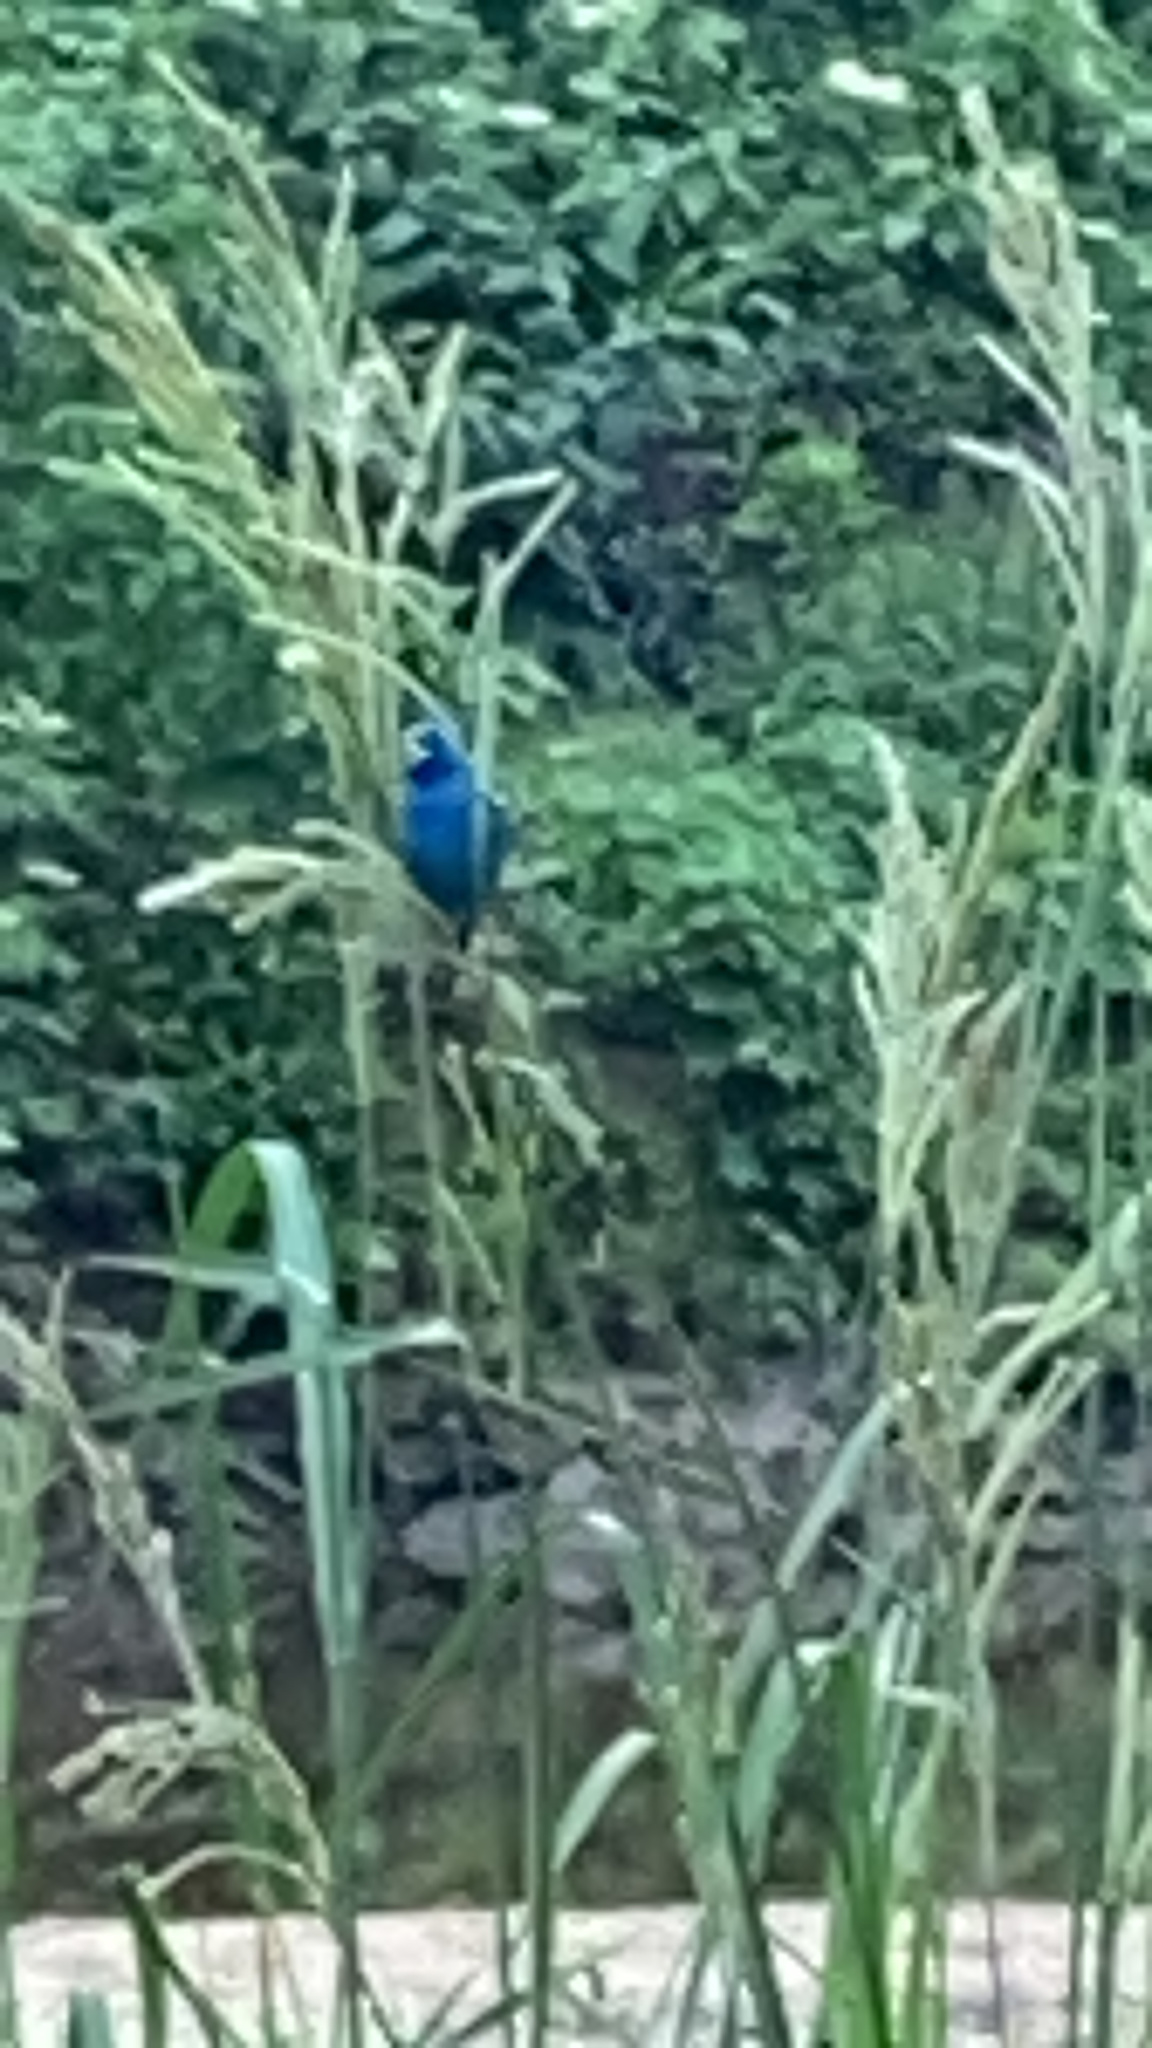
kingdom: Animalia
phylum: Chordata
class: Aves
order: Passeriformes
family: Cardinalidae
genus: Passerina
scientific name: Passerina cyanea
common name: Indigo bunting
